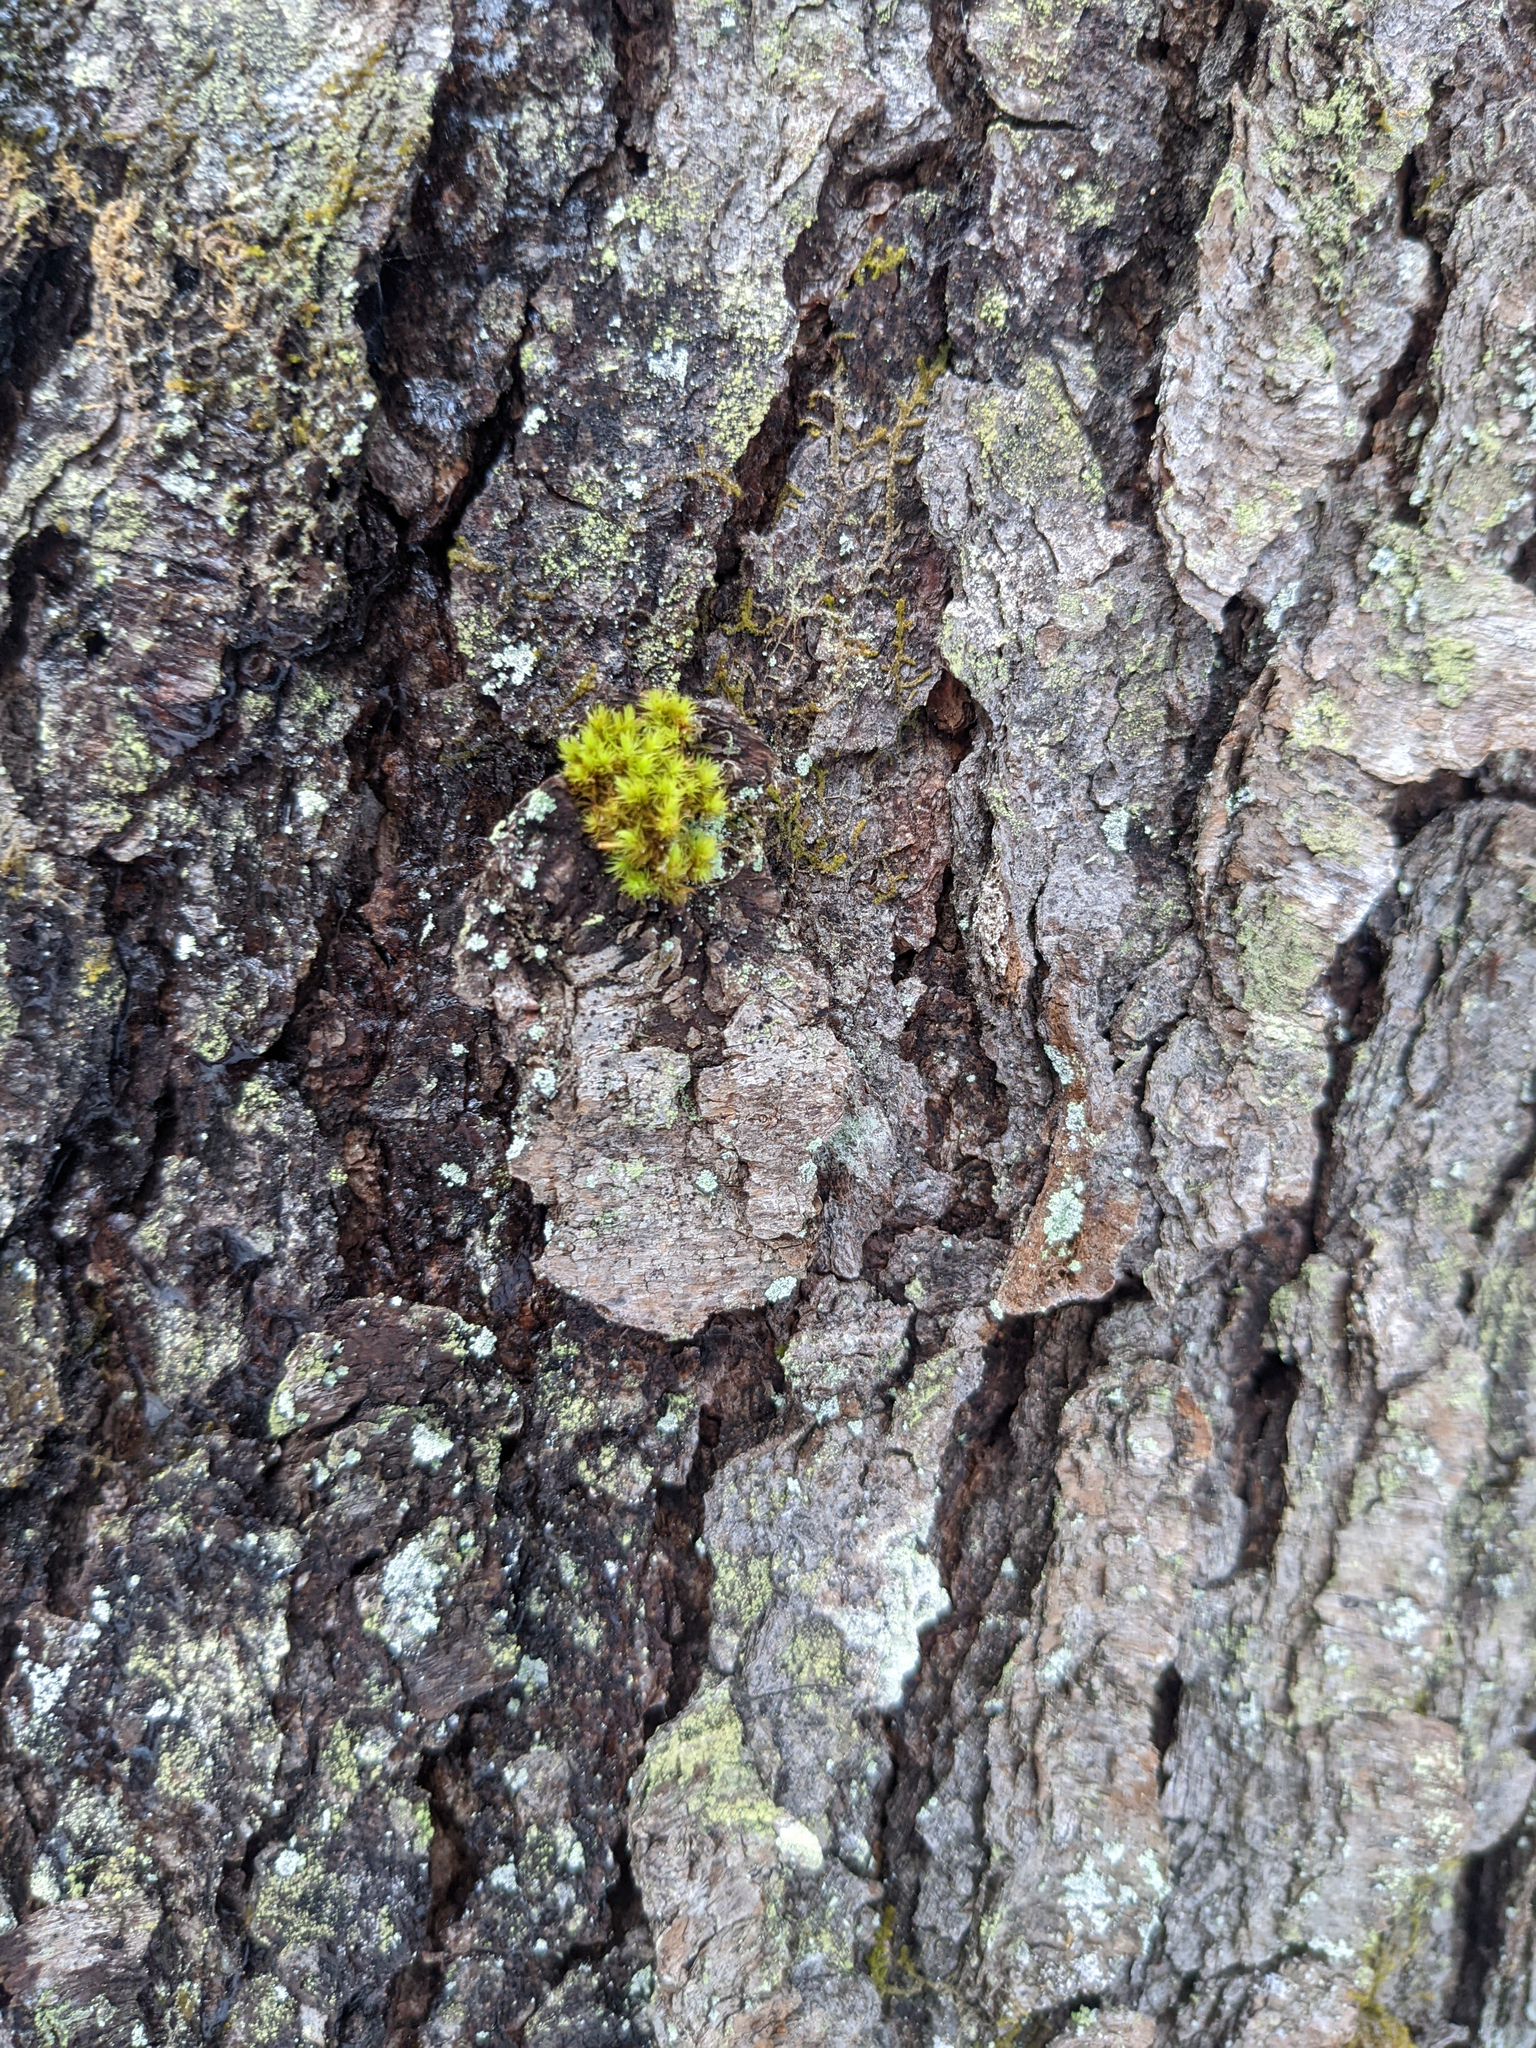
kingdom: Plantae
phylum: Bryophyta
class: Bryopsida
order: Orthotrichales
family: Orthotrichaceae
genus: Ulota
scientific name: Ulota crispa
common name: Crisped pincushion moss
